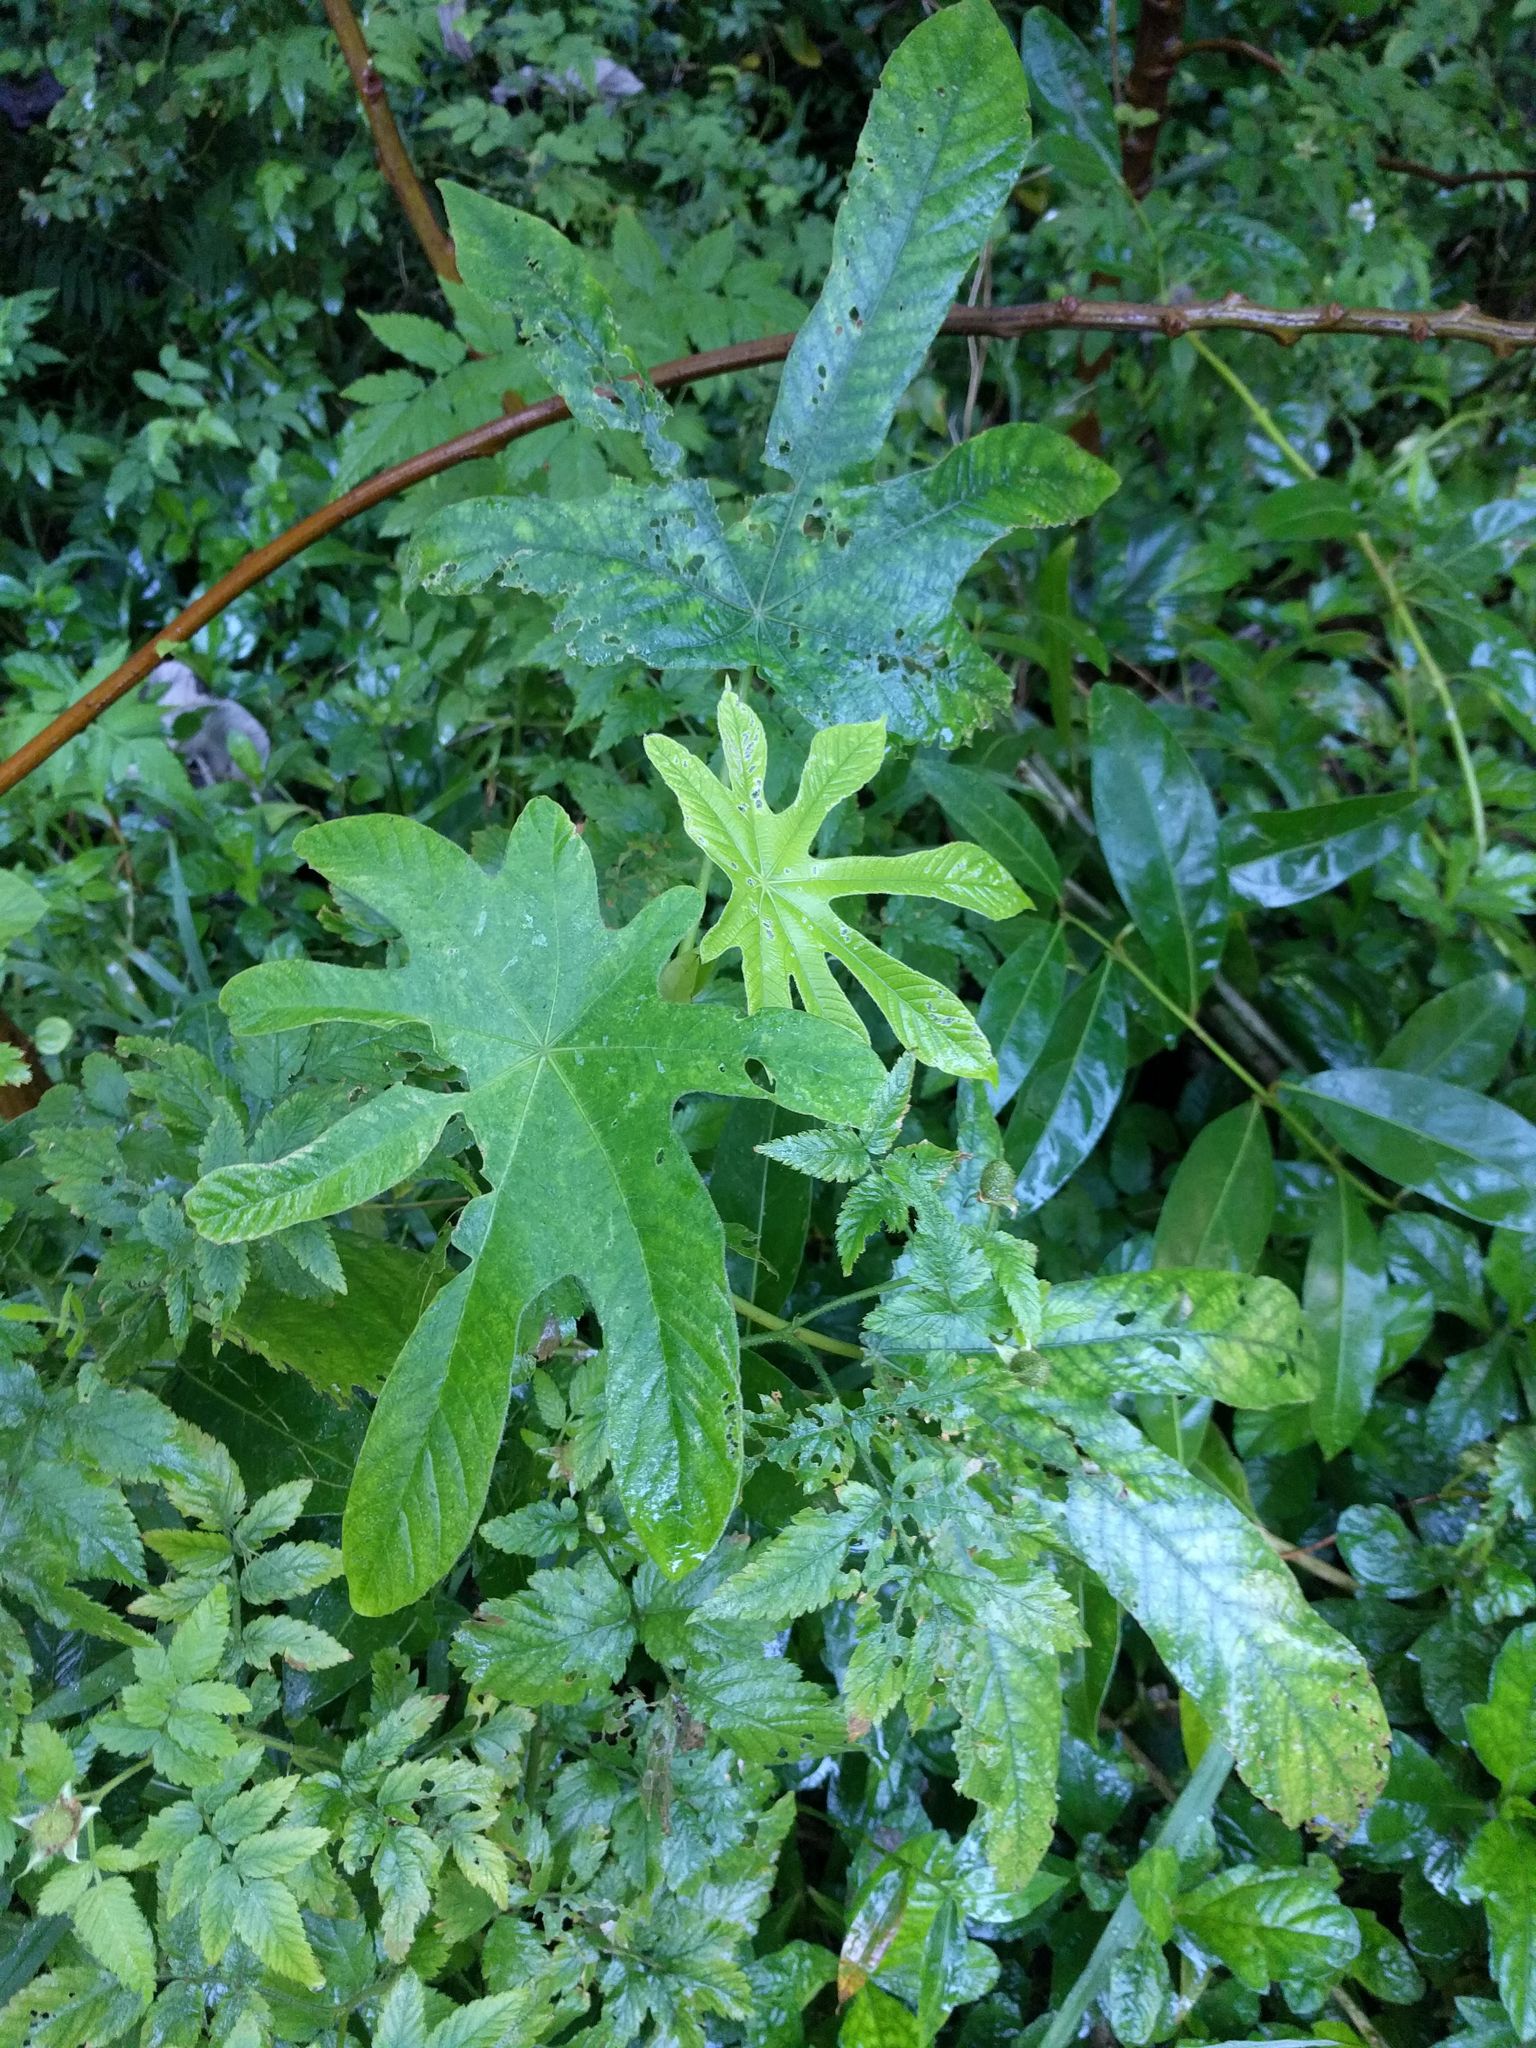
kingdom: Plantae
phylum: Tracheophyta
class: Magnoliopsida
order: Rosales
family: Urticaceae
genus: Cecropia
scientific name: Cecropia obtusifolia
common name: Trumpet tree
